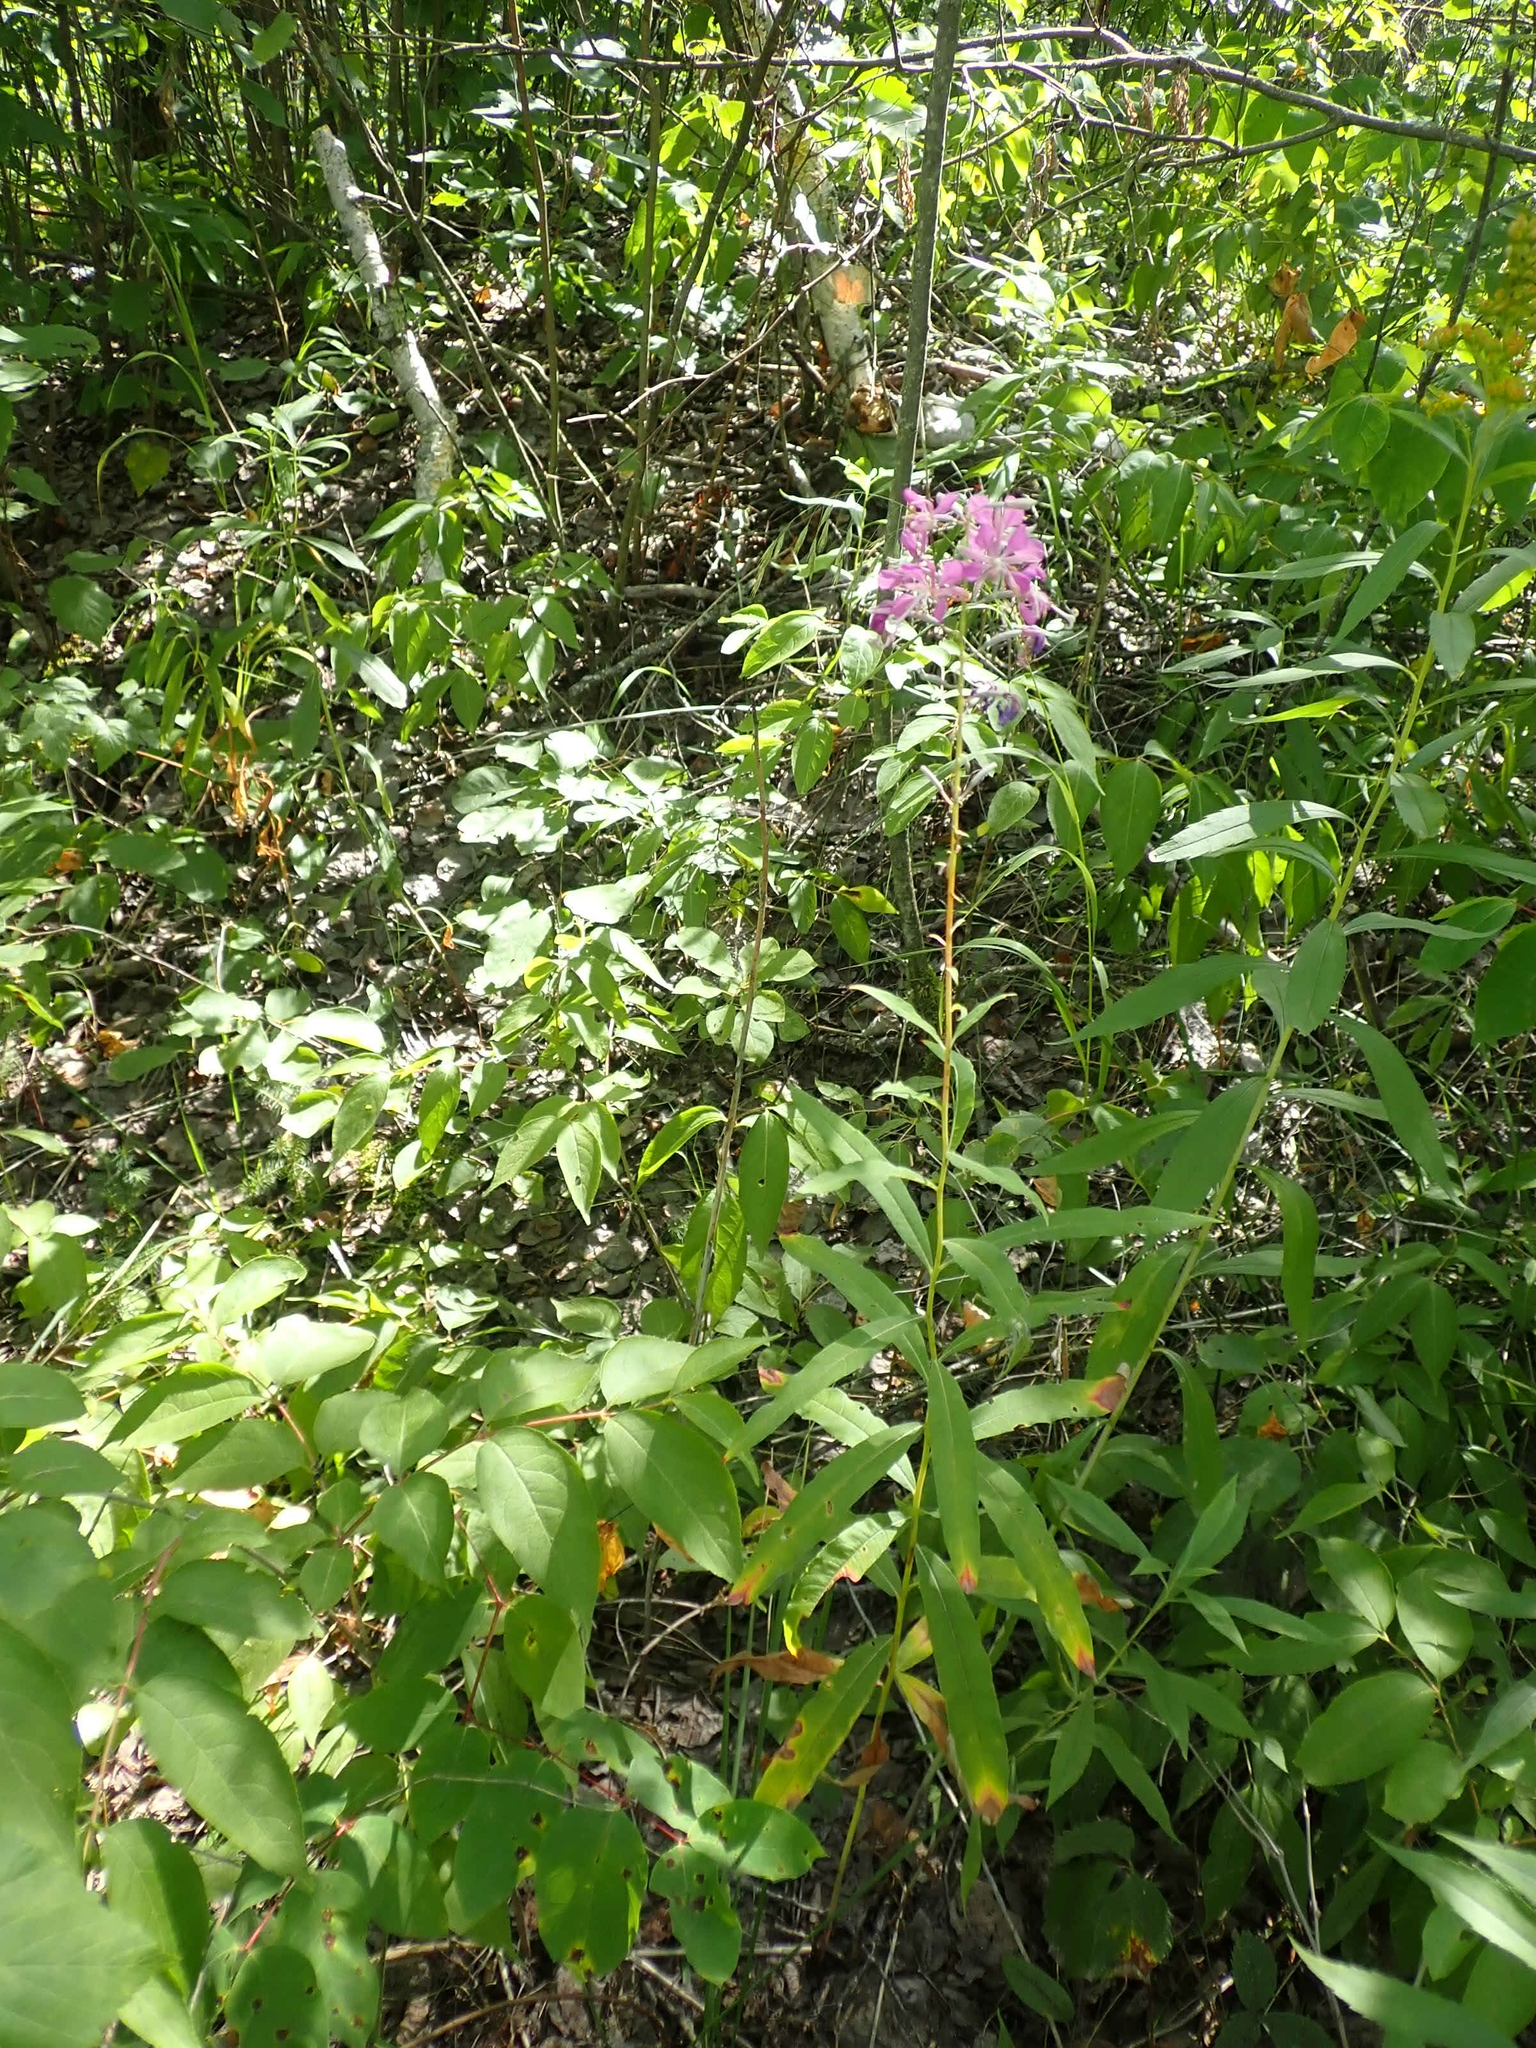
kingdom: Plantae
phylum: Tracheophyta
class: Magnoliopsida
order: Myrtales
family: Onagraceae
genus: Chamaenerion
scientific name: Chamaenerion angustifolium
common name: Fireweed
